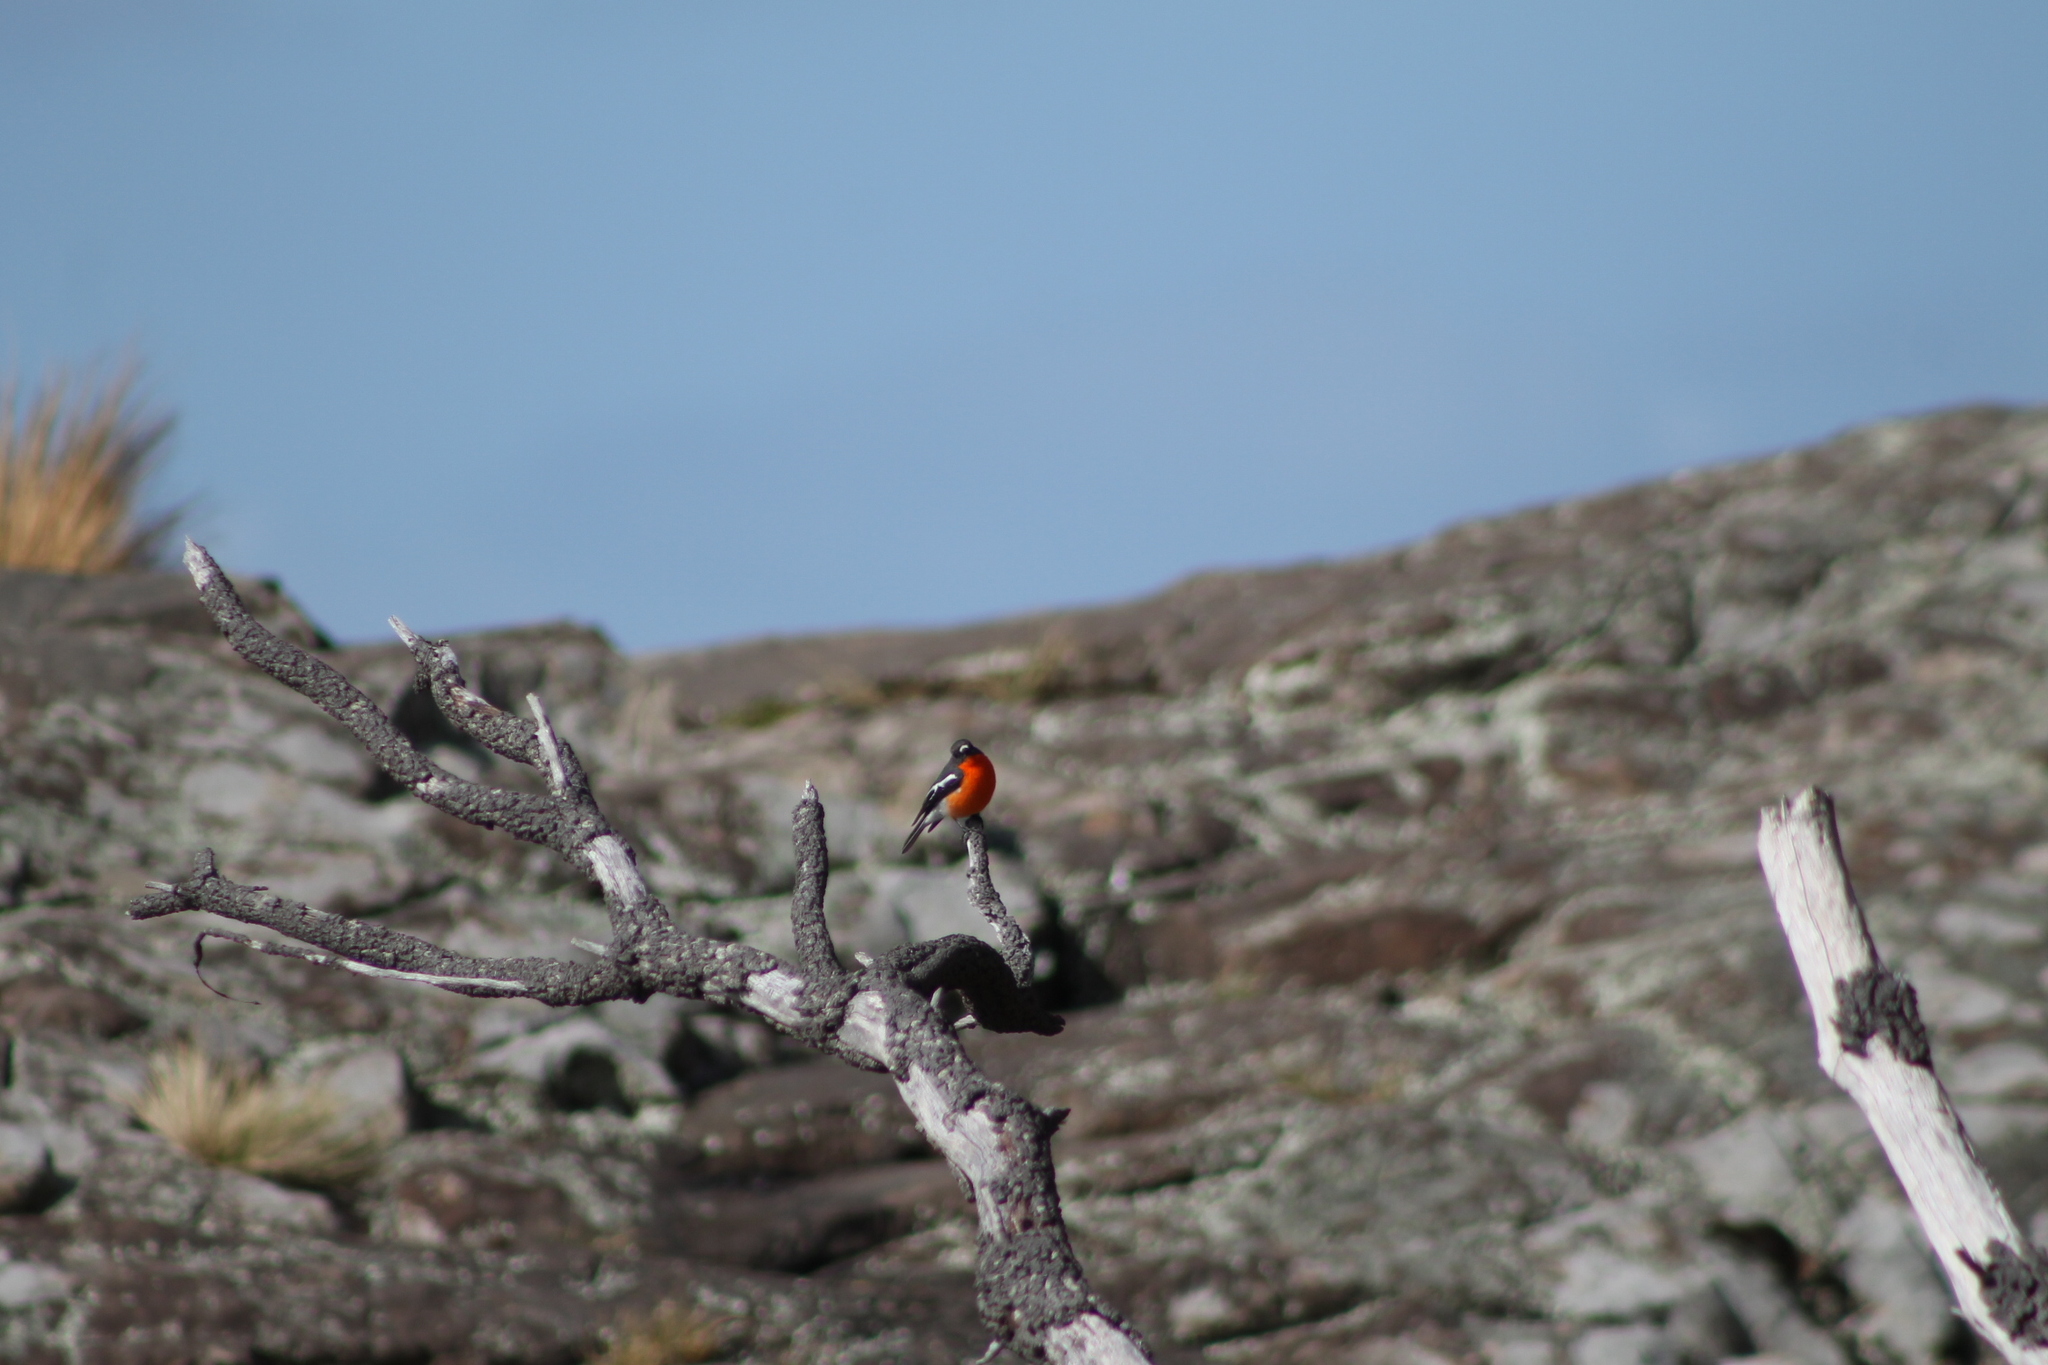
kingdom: Animalia
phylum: Chordata
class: Aves
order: Passeriformes
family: Petroicidae
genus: Petroica
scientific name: Petroica phoenicea
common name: Flame robin
